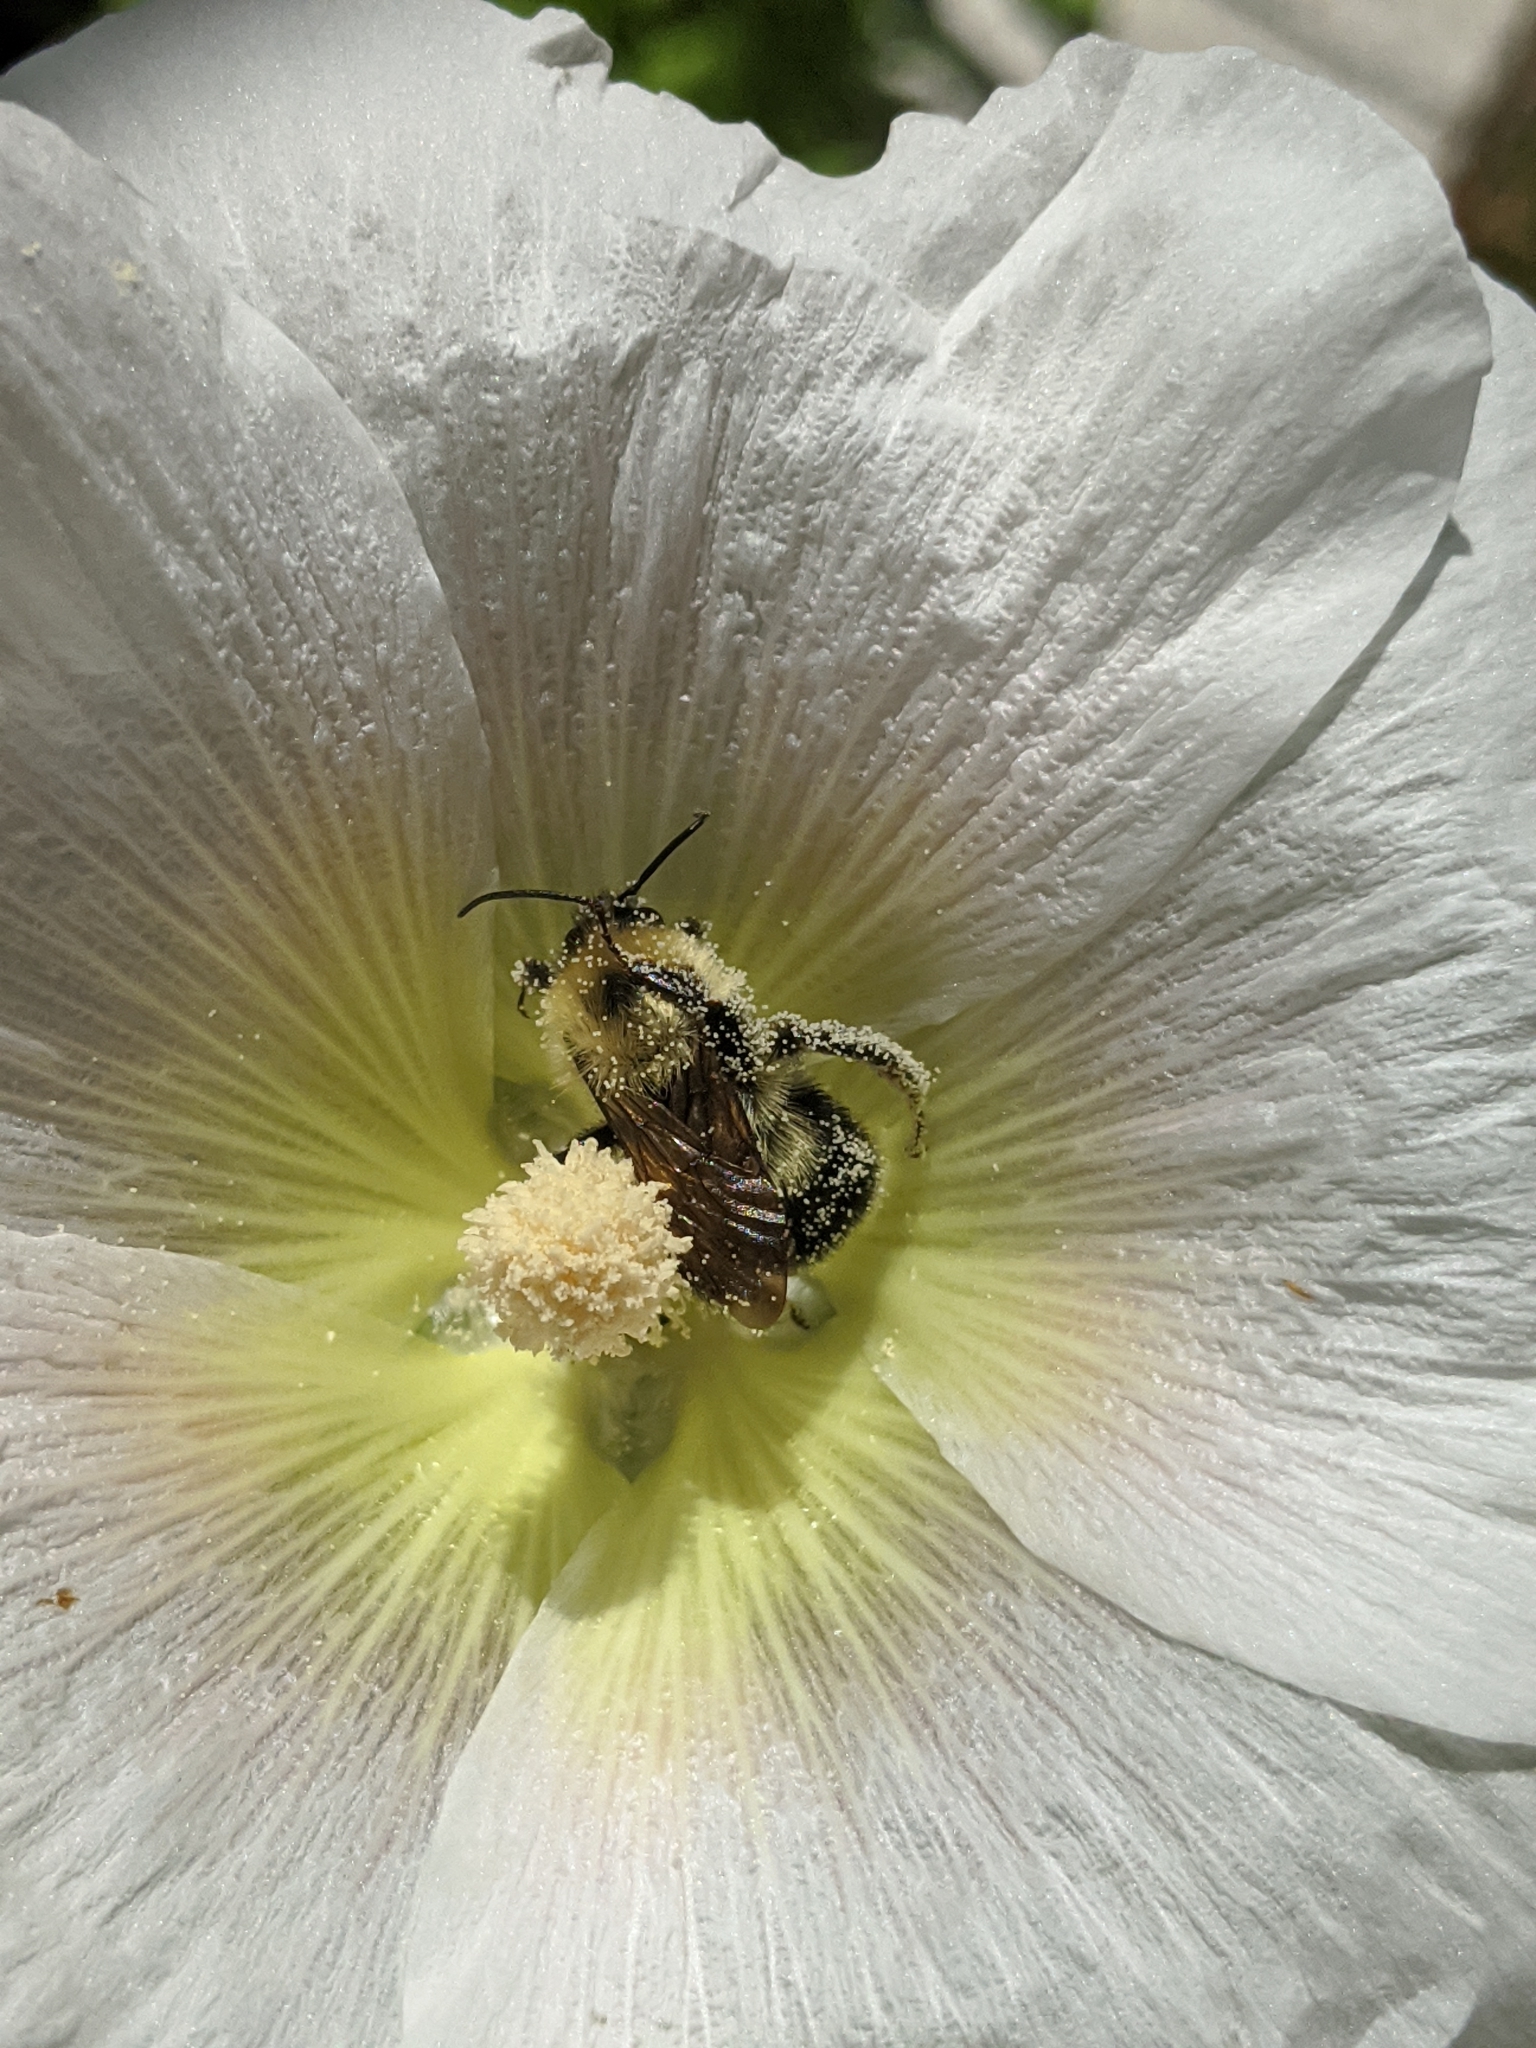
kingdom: Animalia
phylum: Arthropoda
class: Insecta
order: Hymenoptera
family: Apidae
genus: Bombus
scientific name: Bombus bimaculatus
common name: Two-spotted bumble bee
